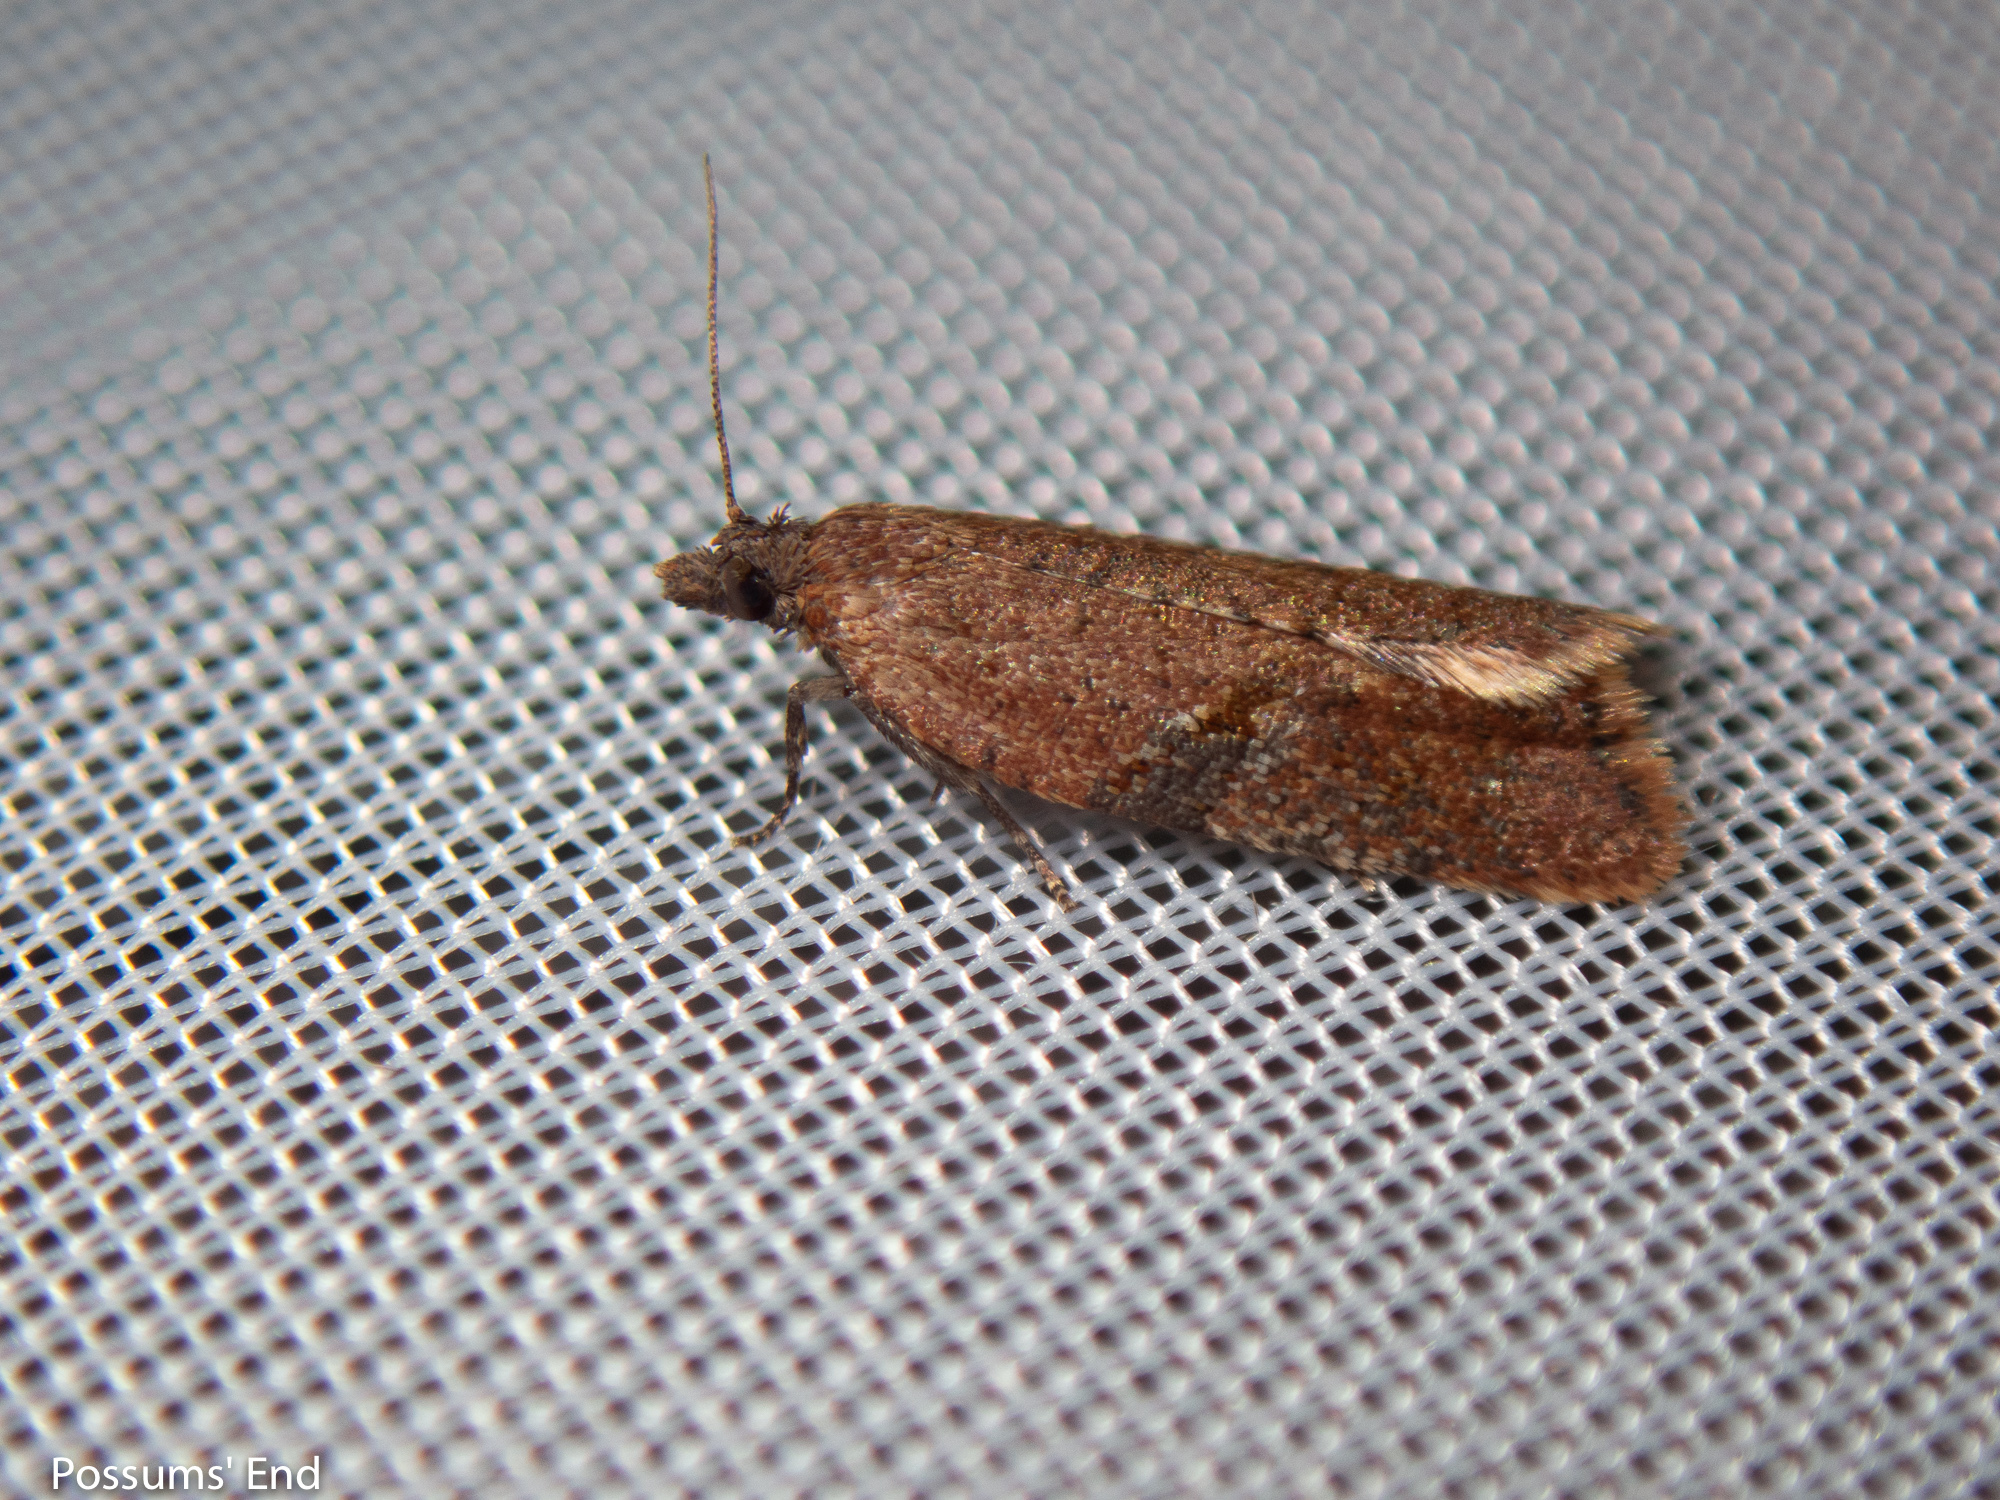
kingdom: Animalia
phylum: Arthropoda
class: Insecta
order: Lepidoptera
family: Tortricidae
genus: Capua
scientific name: Capua semiferana
